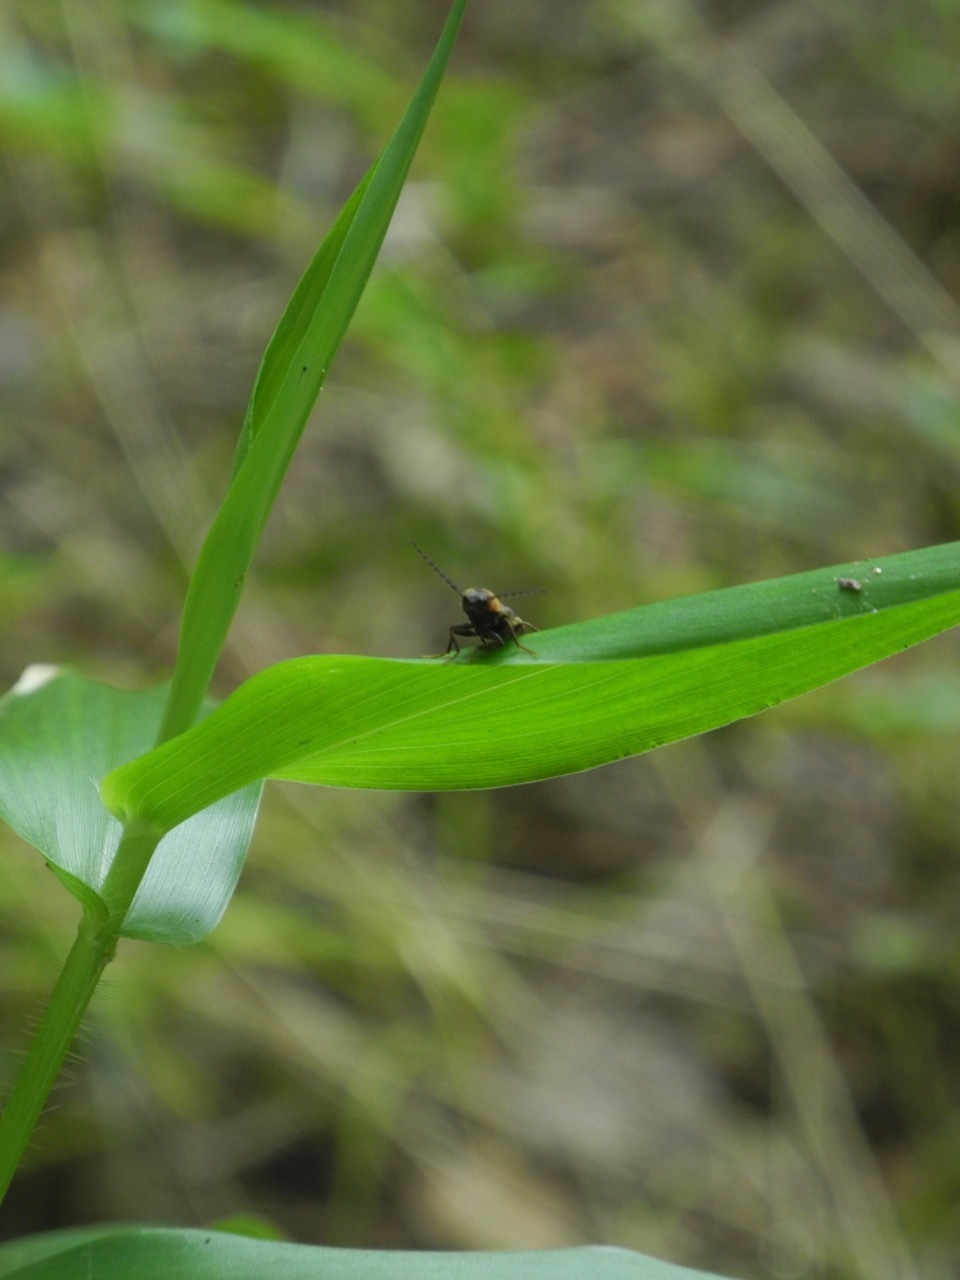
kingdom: Animalia
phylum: Arthropoda
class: Insecta
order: Coleoptera
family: Elateridae
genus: Megapenthes
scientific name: Megapenthes
